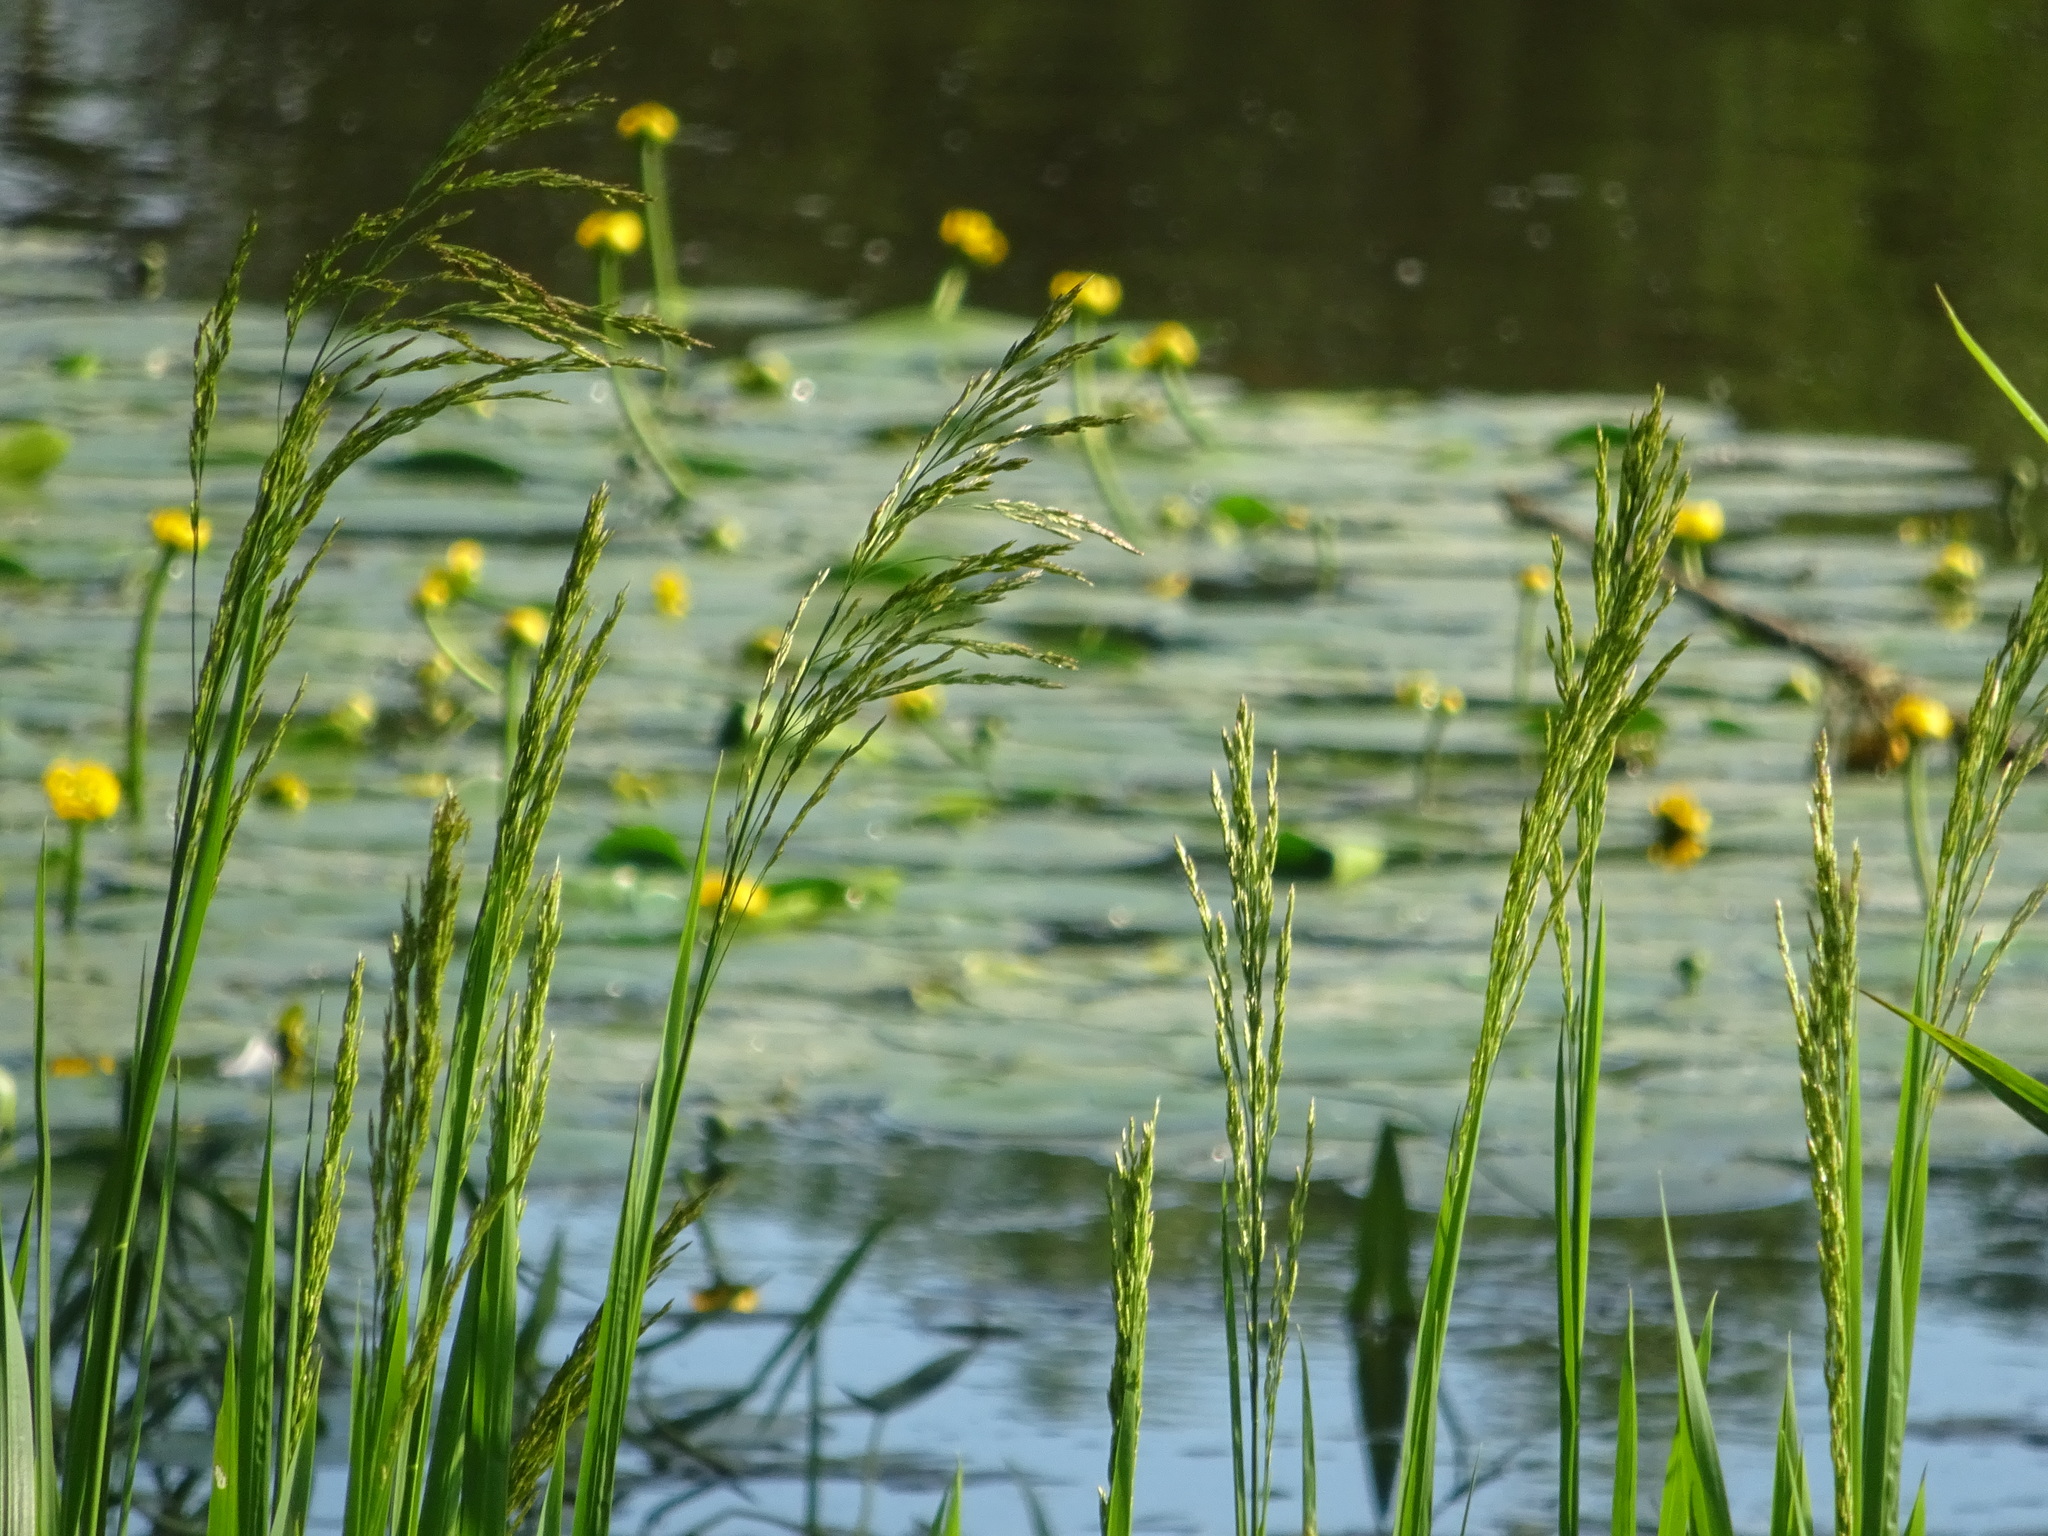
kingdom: Plantae
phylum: Tracheophyta
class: Liliopsida
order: Poales
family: Poaceae
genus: Glyceria
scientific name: Glyceria maxima
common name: Reed mannagrass
